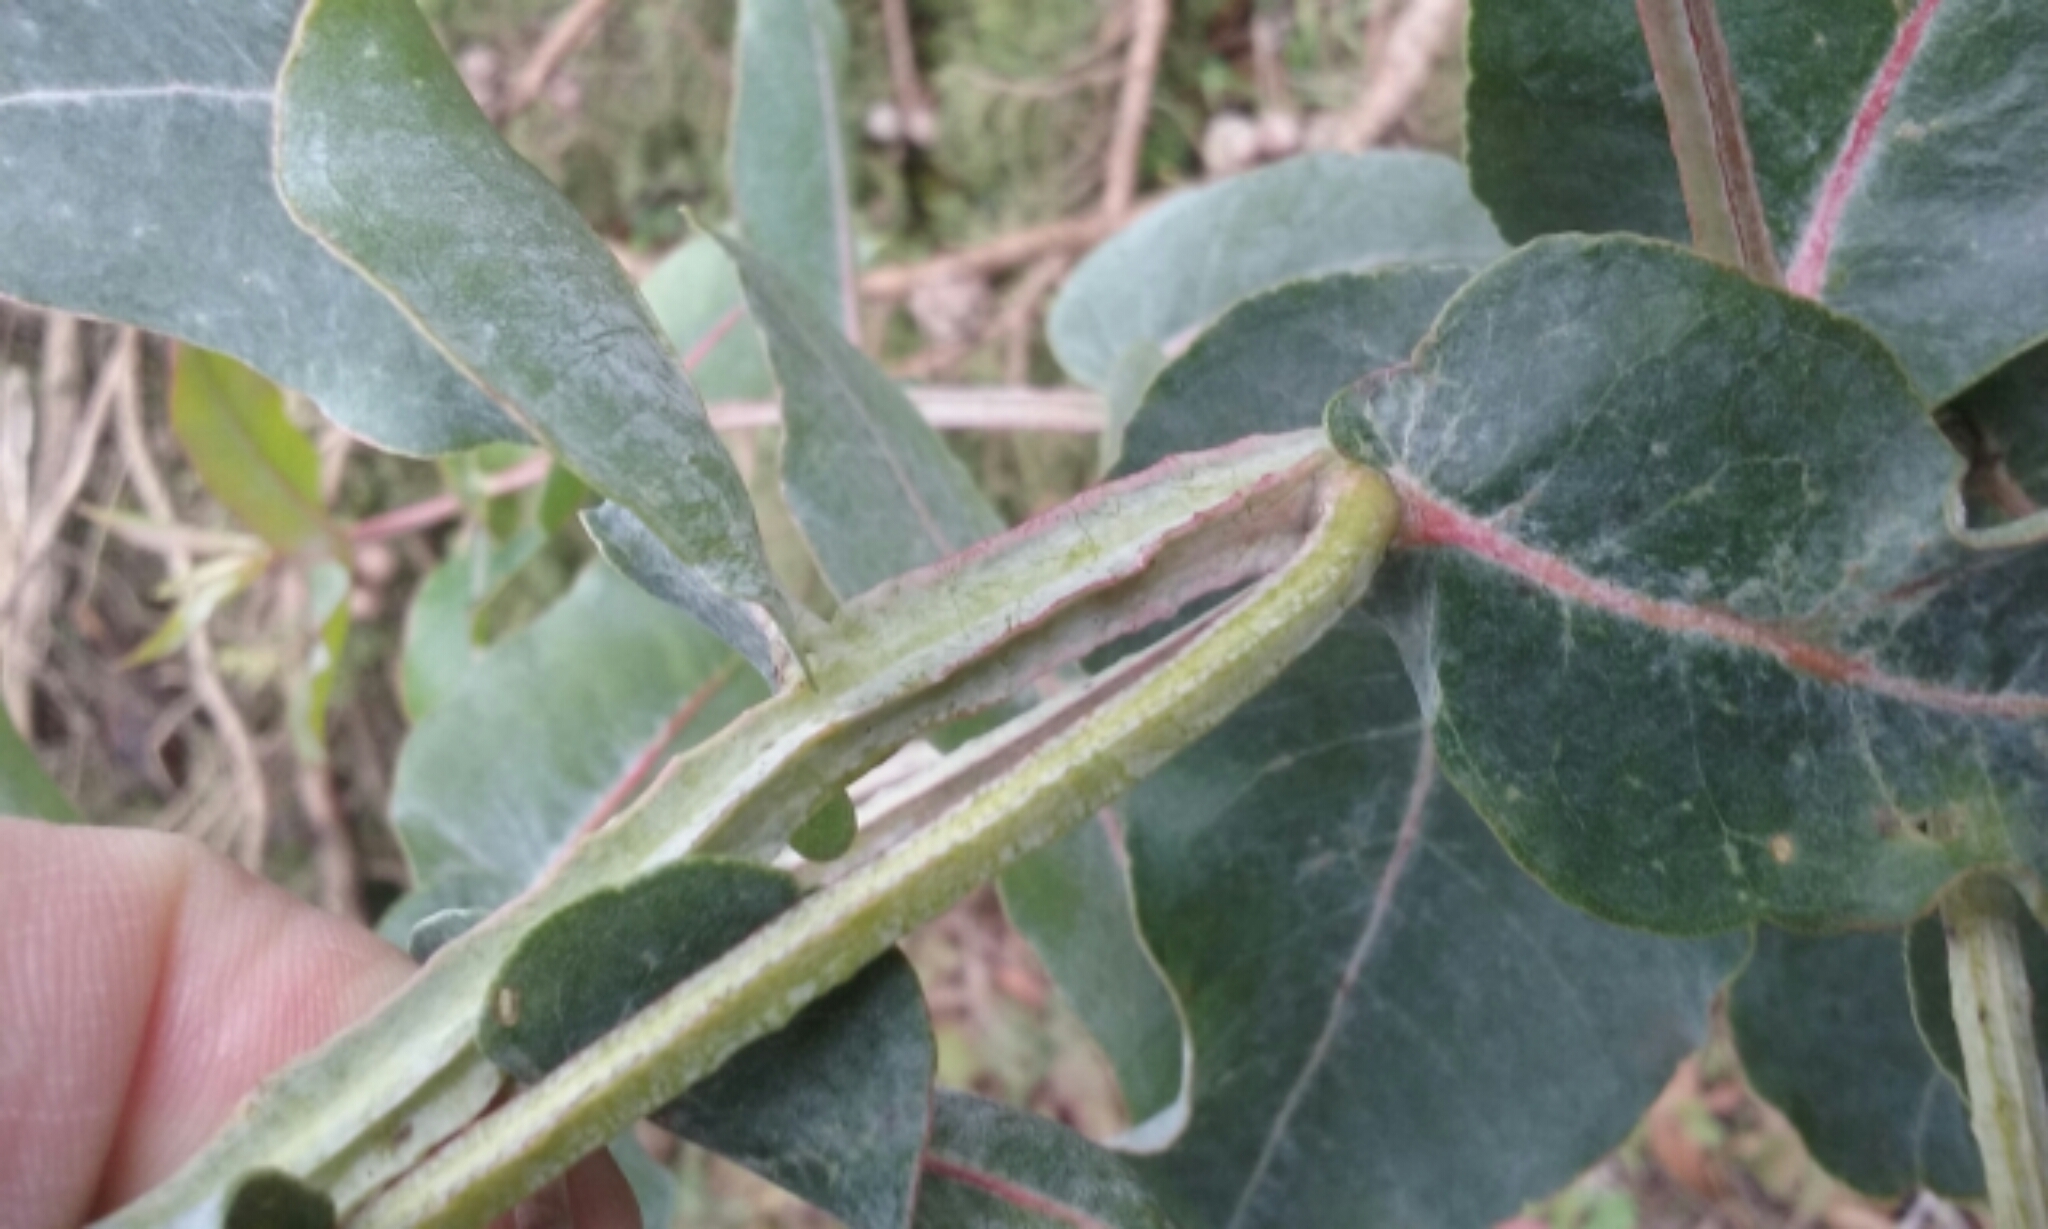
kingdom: Plantae
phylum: Tracheophyta
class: Magnoliopsida
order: Myrtales
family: Myrtaceae
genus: Eucalyptus
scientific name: Eucalyptus globulus
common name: Southern blue-gum
